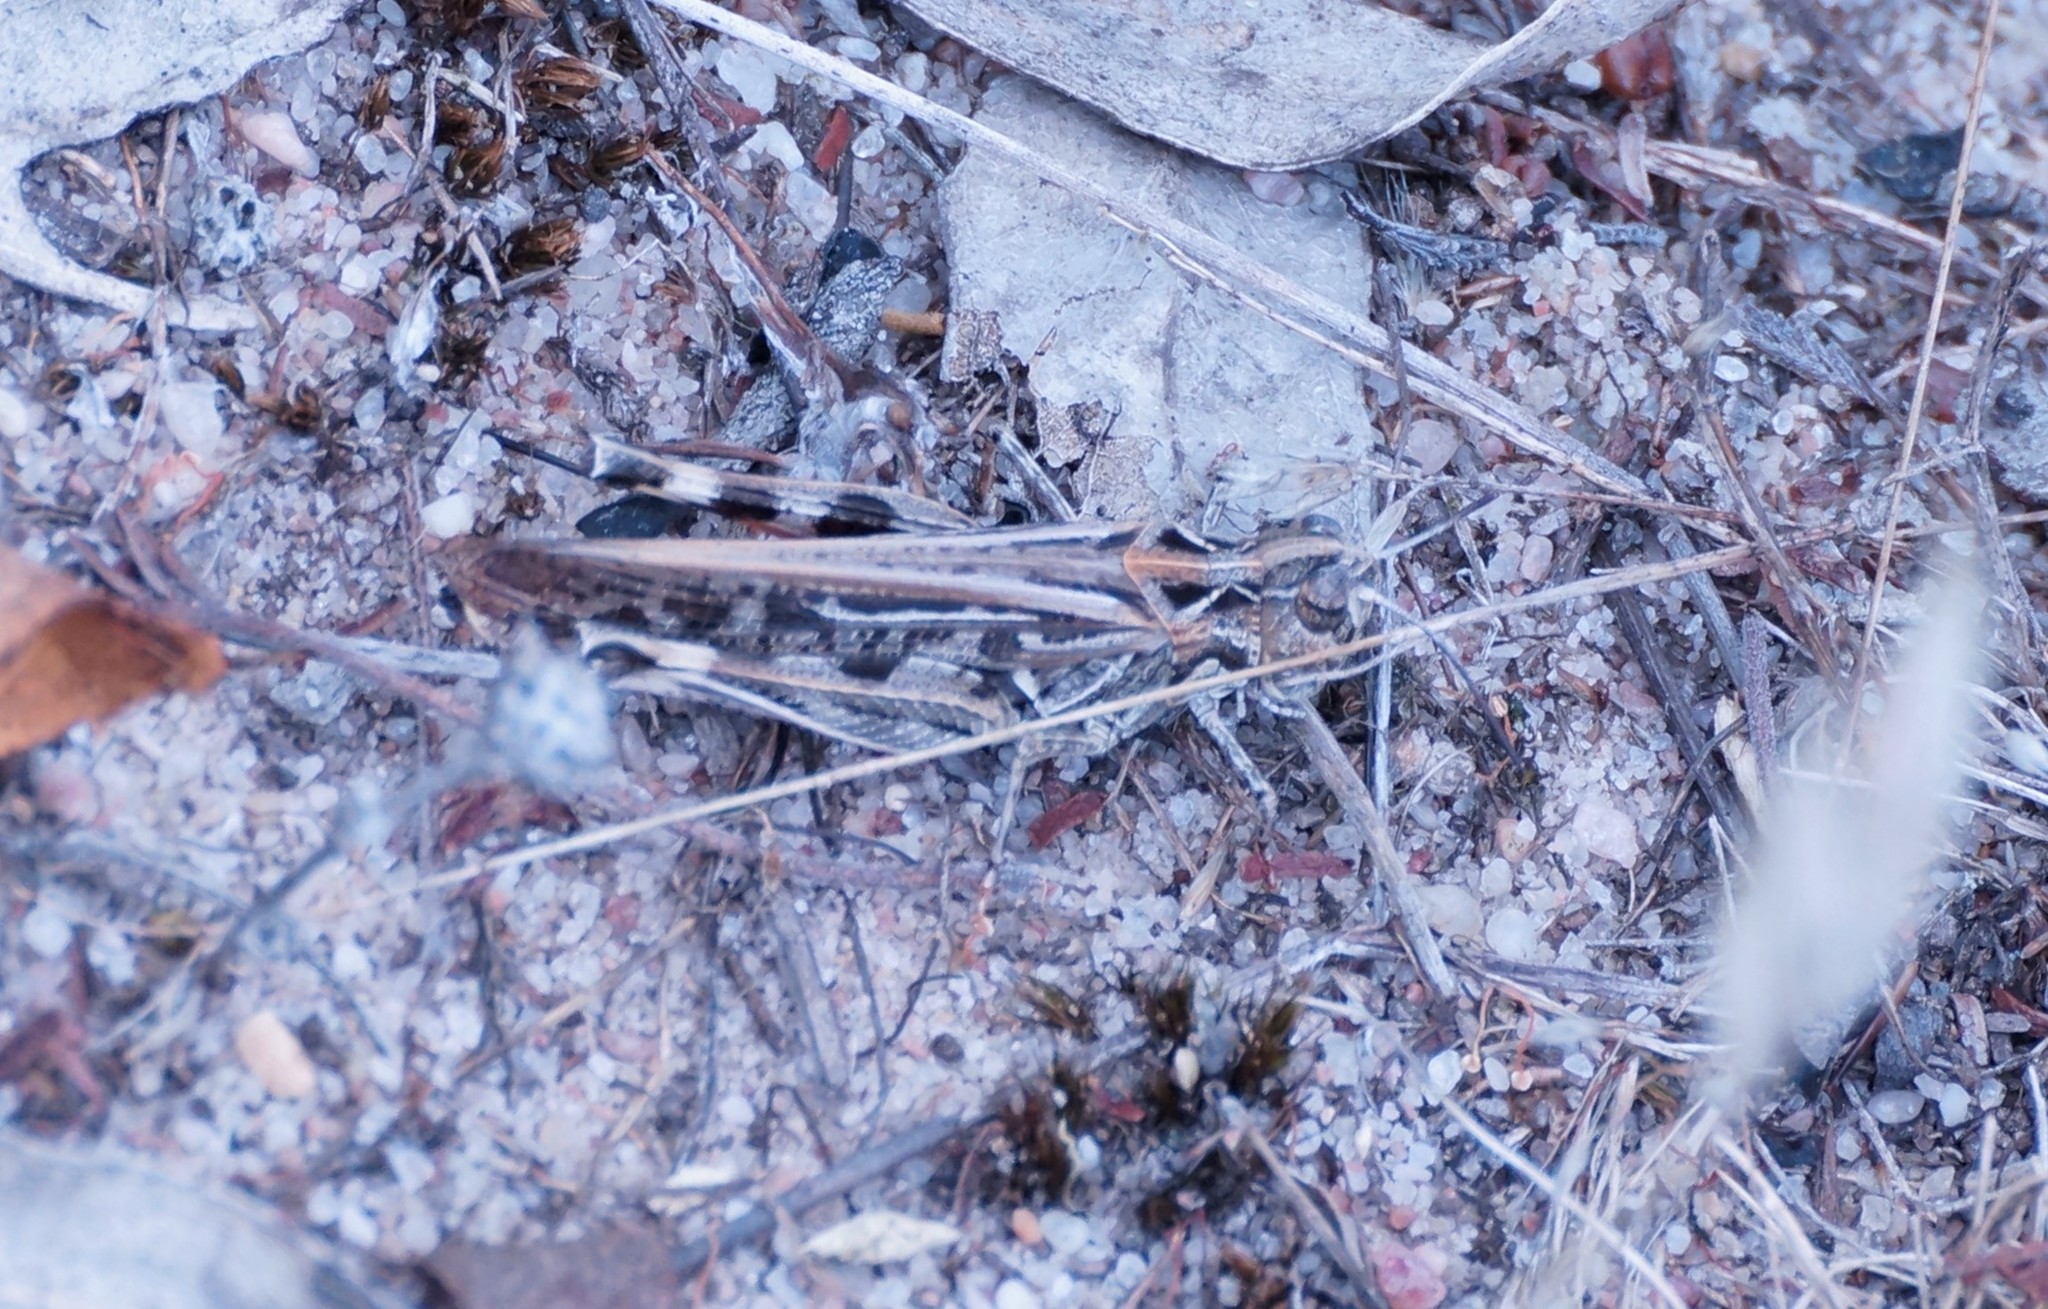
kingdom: Animalia
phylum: Arthropoda
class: Insecta
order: Orthoptera
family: Acrididae
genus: Austroicetes
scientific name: Austroicetes vulgaris
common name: Southeastern austroicetes
